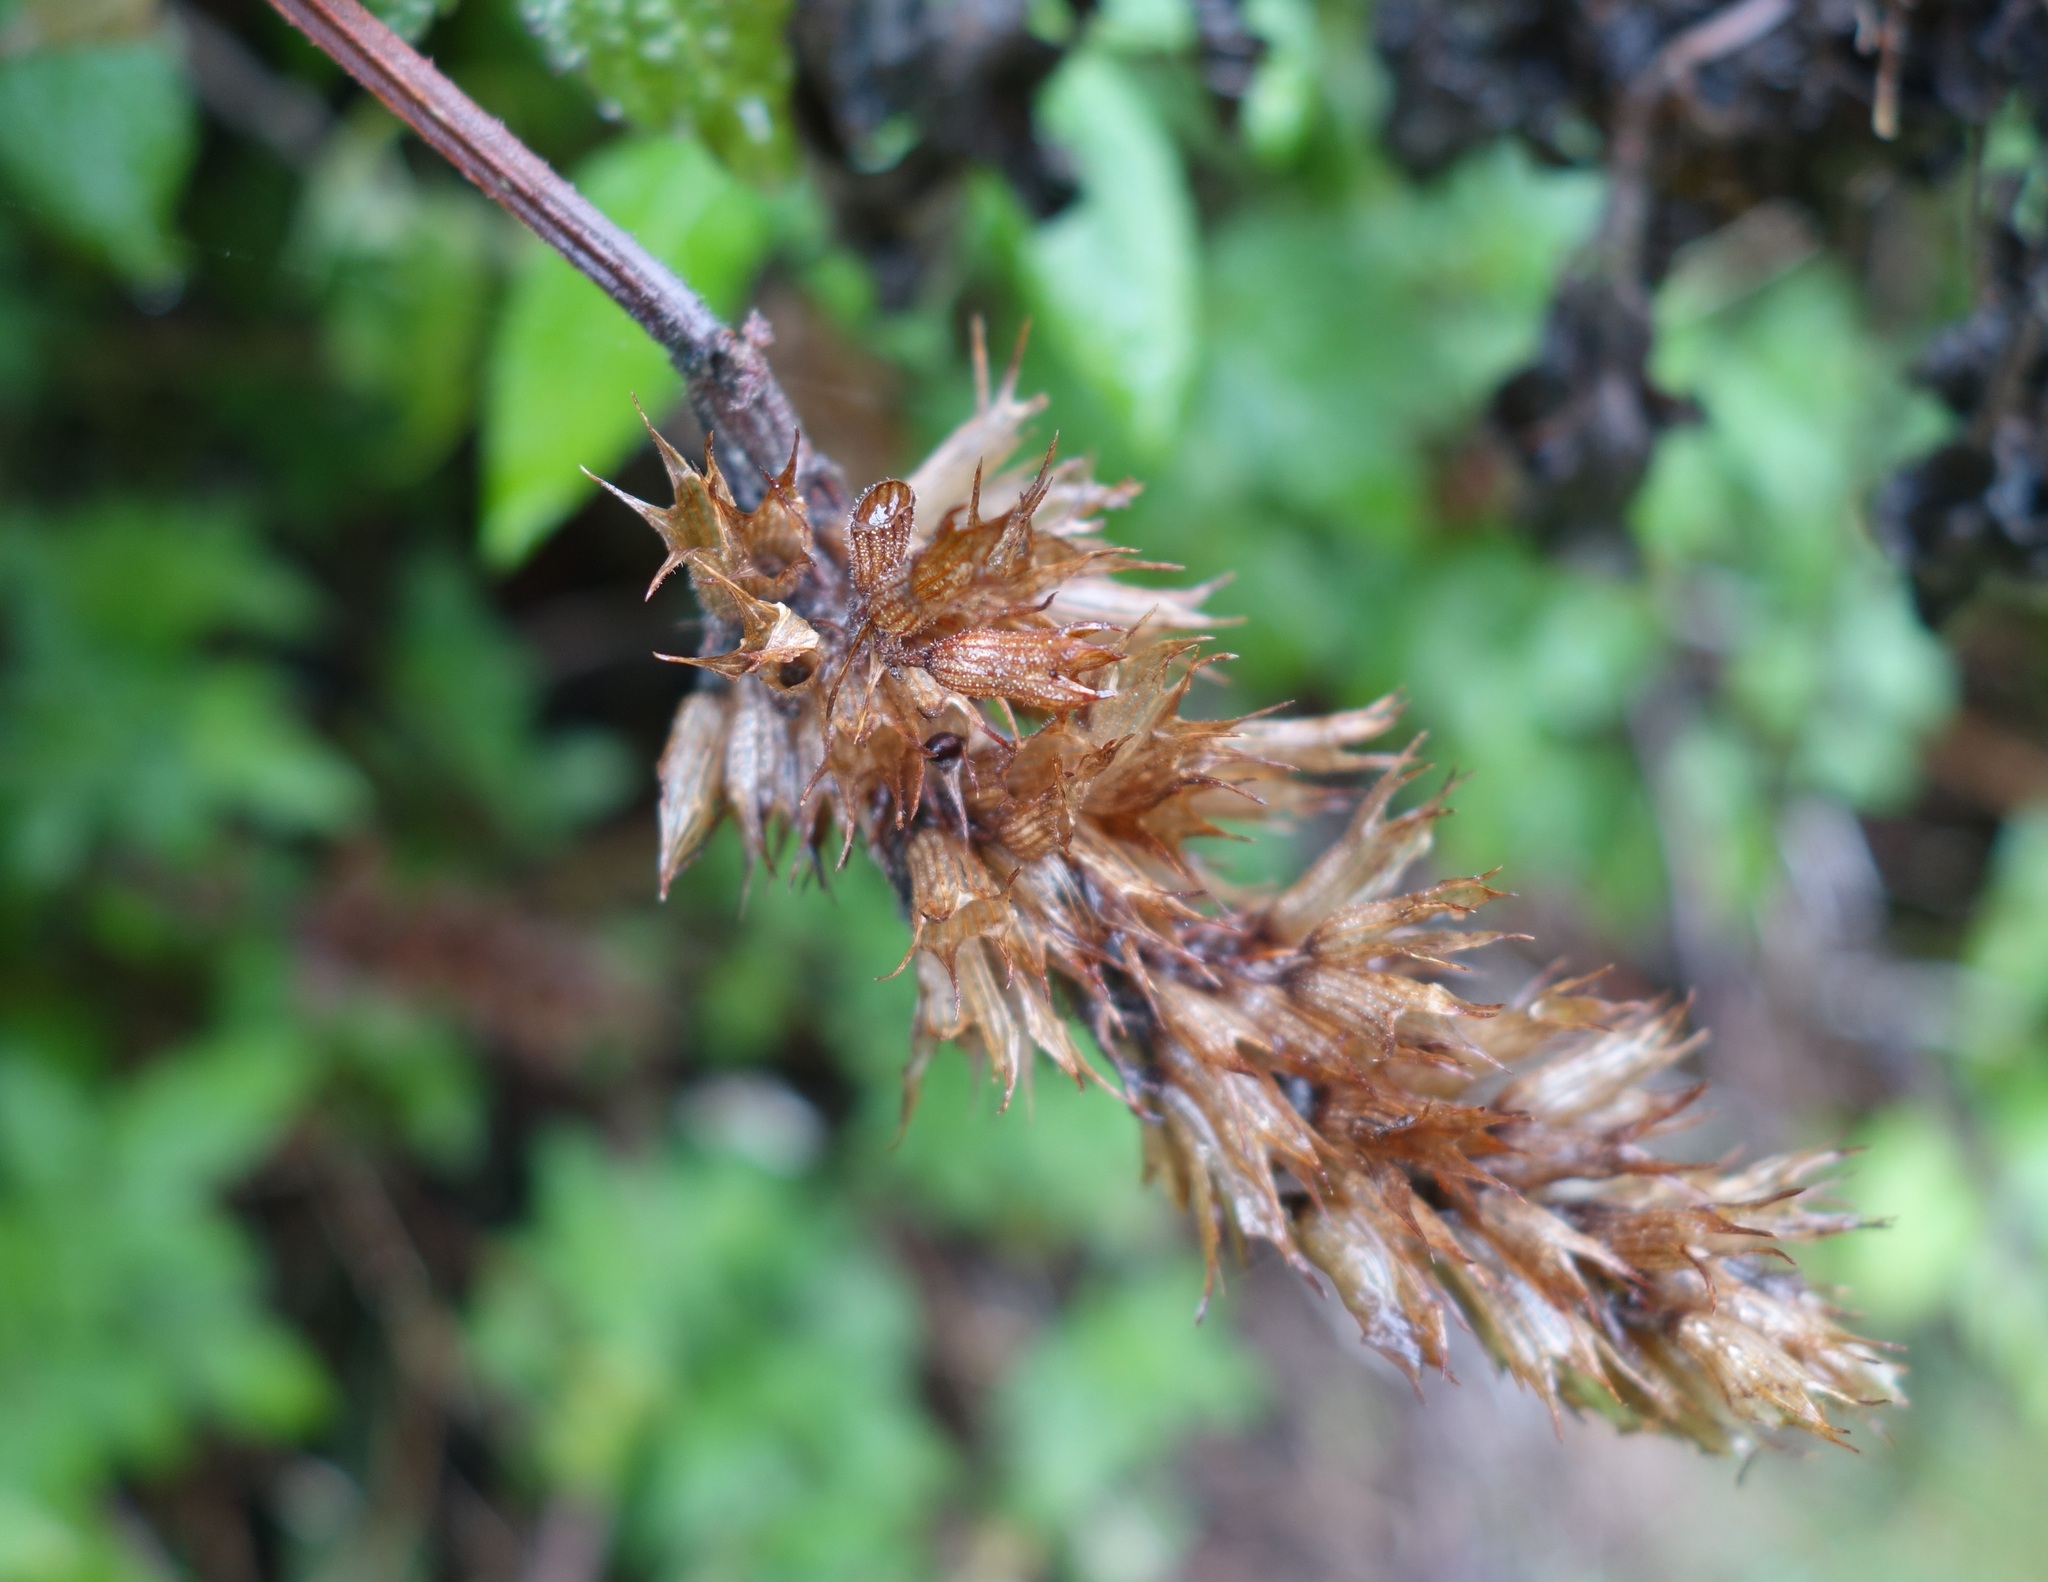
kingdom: Plantae
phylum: Tracheophyta
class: Magnoliopsida
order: Lamiales
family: Lamiaceae
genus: Cedronella
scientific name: Cedronella canariensis
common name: Canary islands balm
